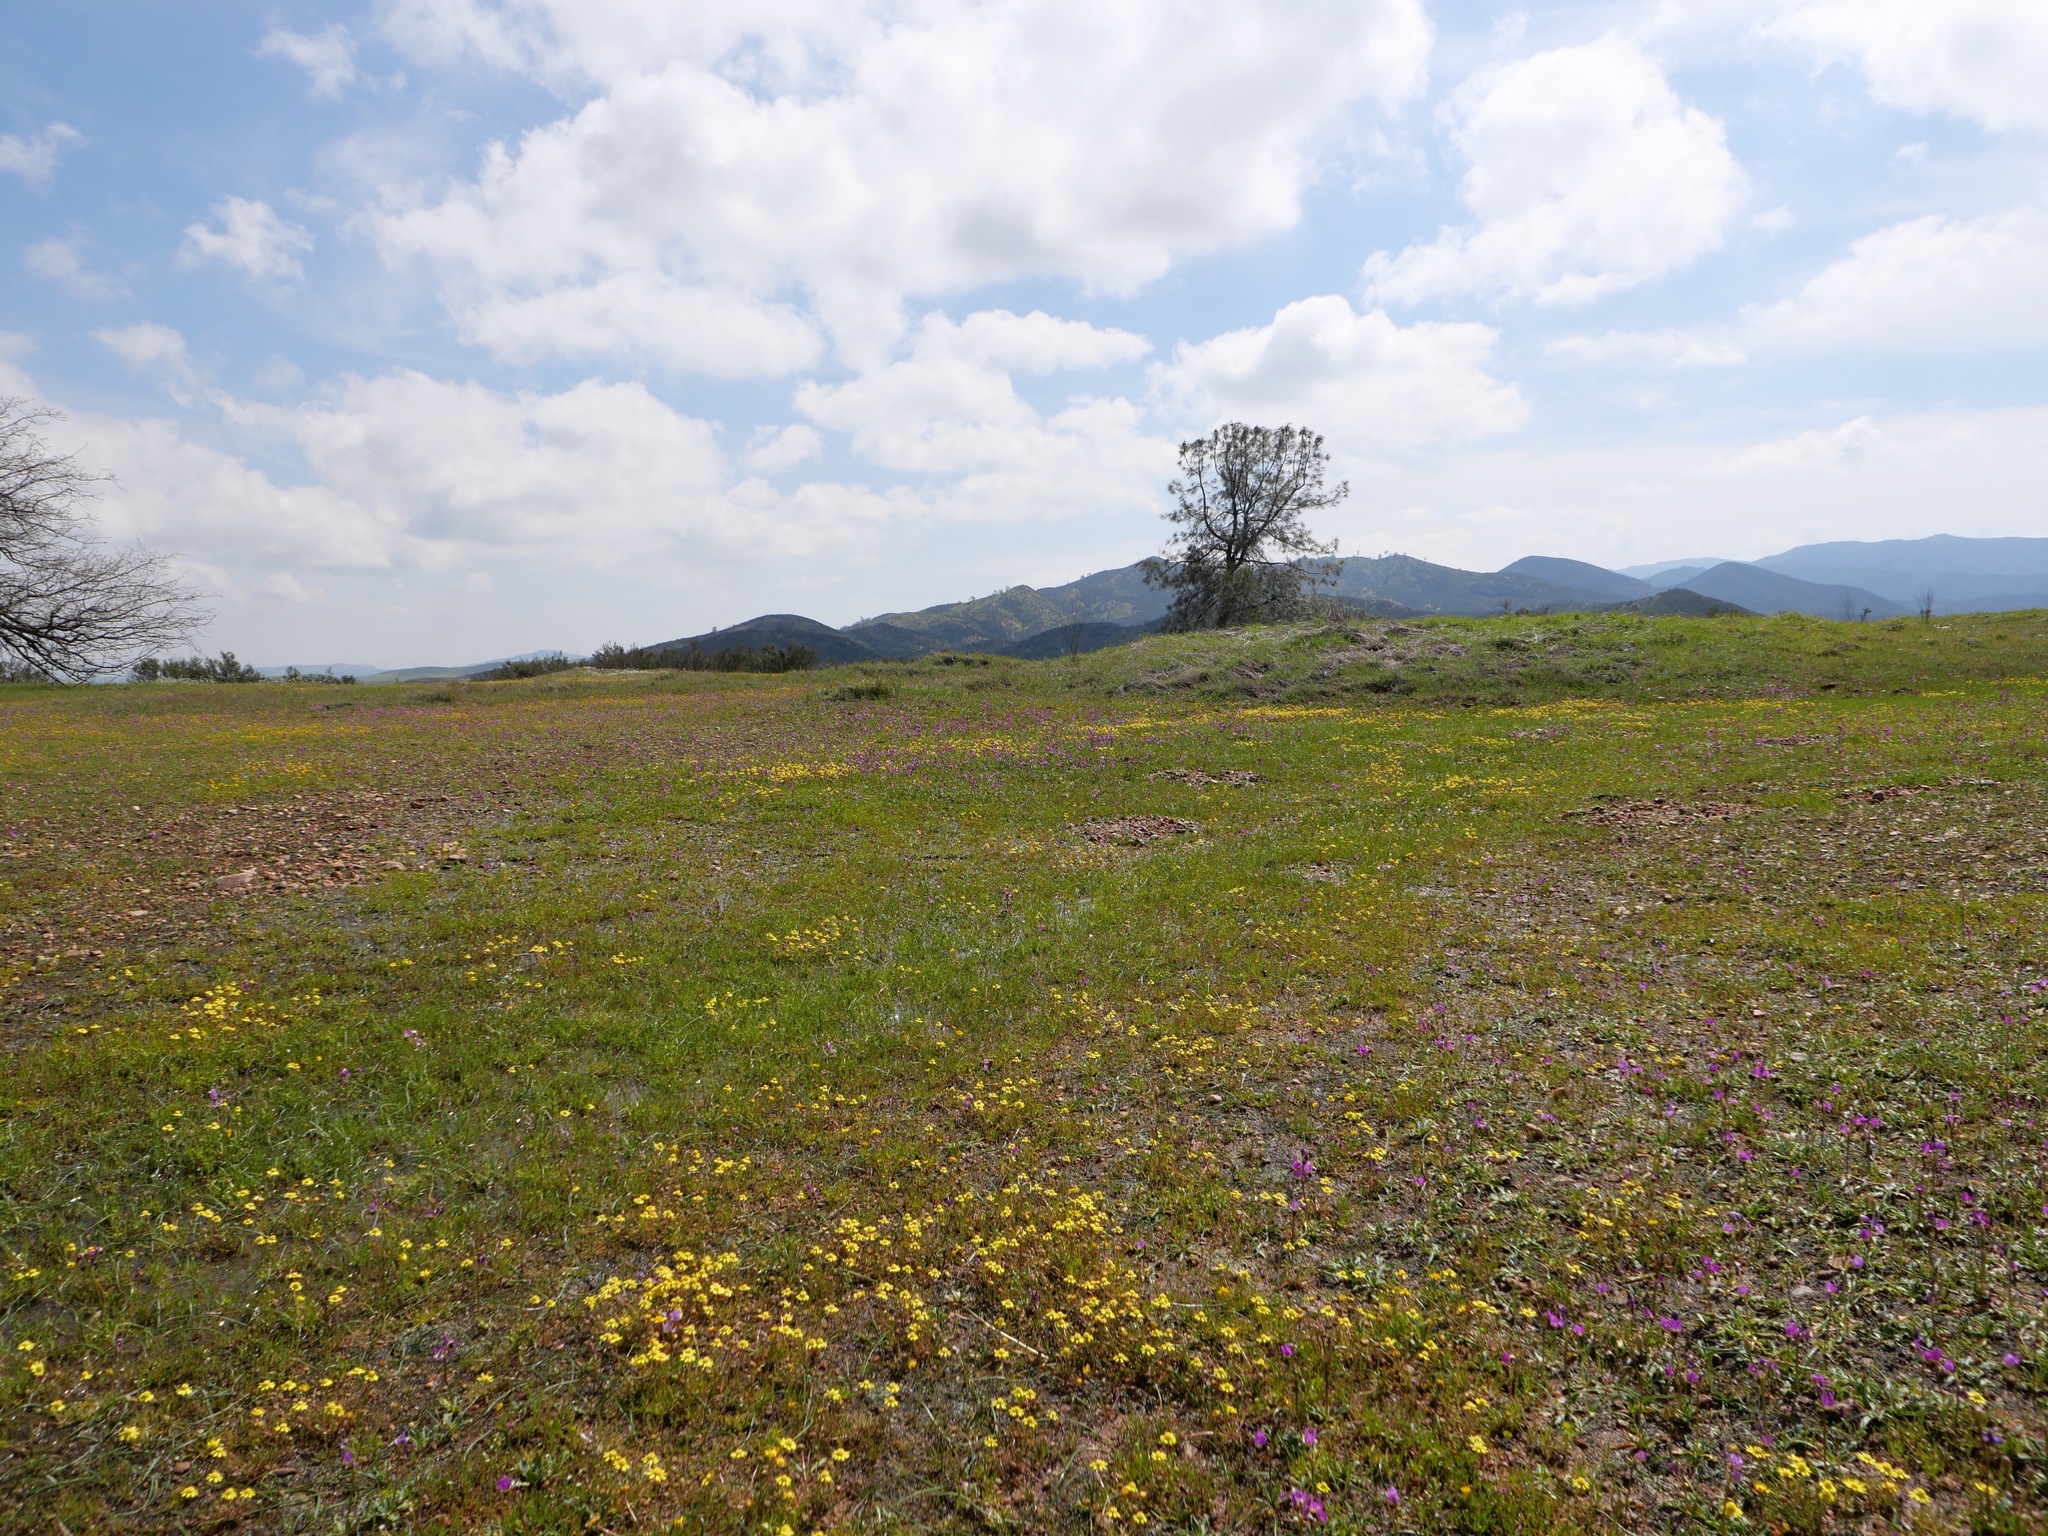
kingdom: Plantae
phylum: Tracheophyta
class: Magnoliopsida
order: Asterales
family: Asteraceae
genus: Blennosperma
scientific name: Blennosperma nanum
